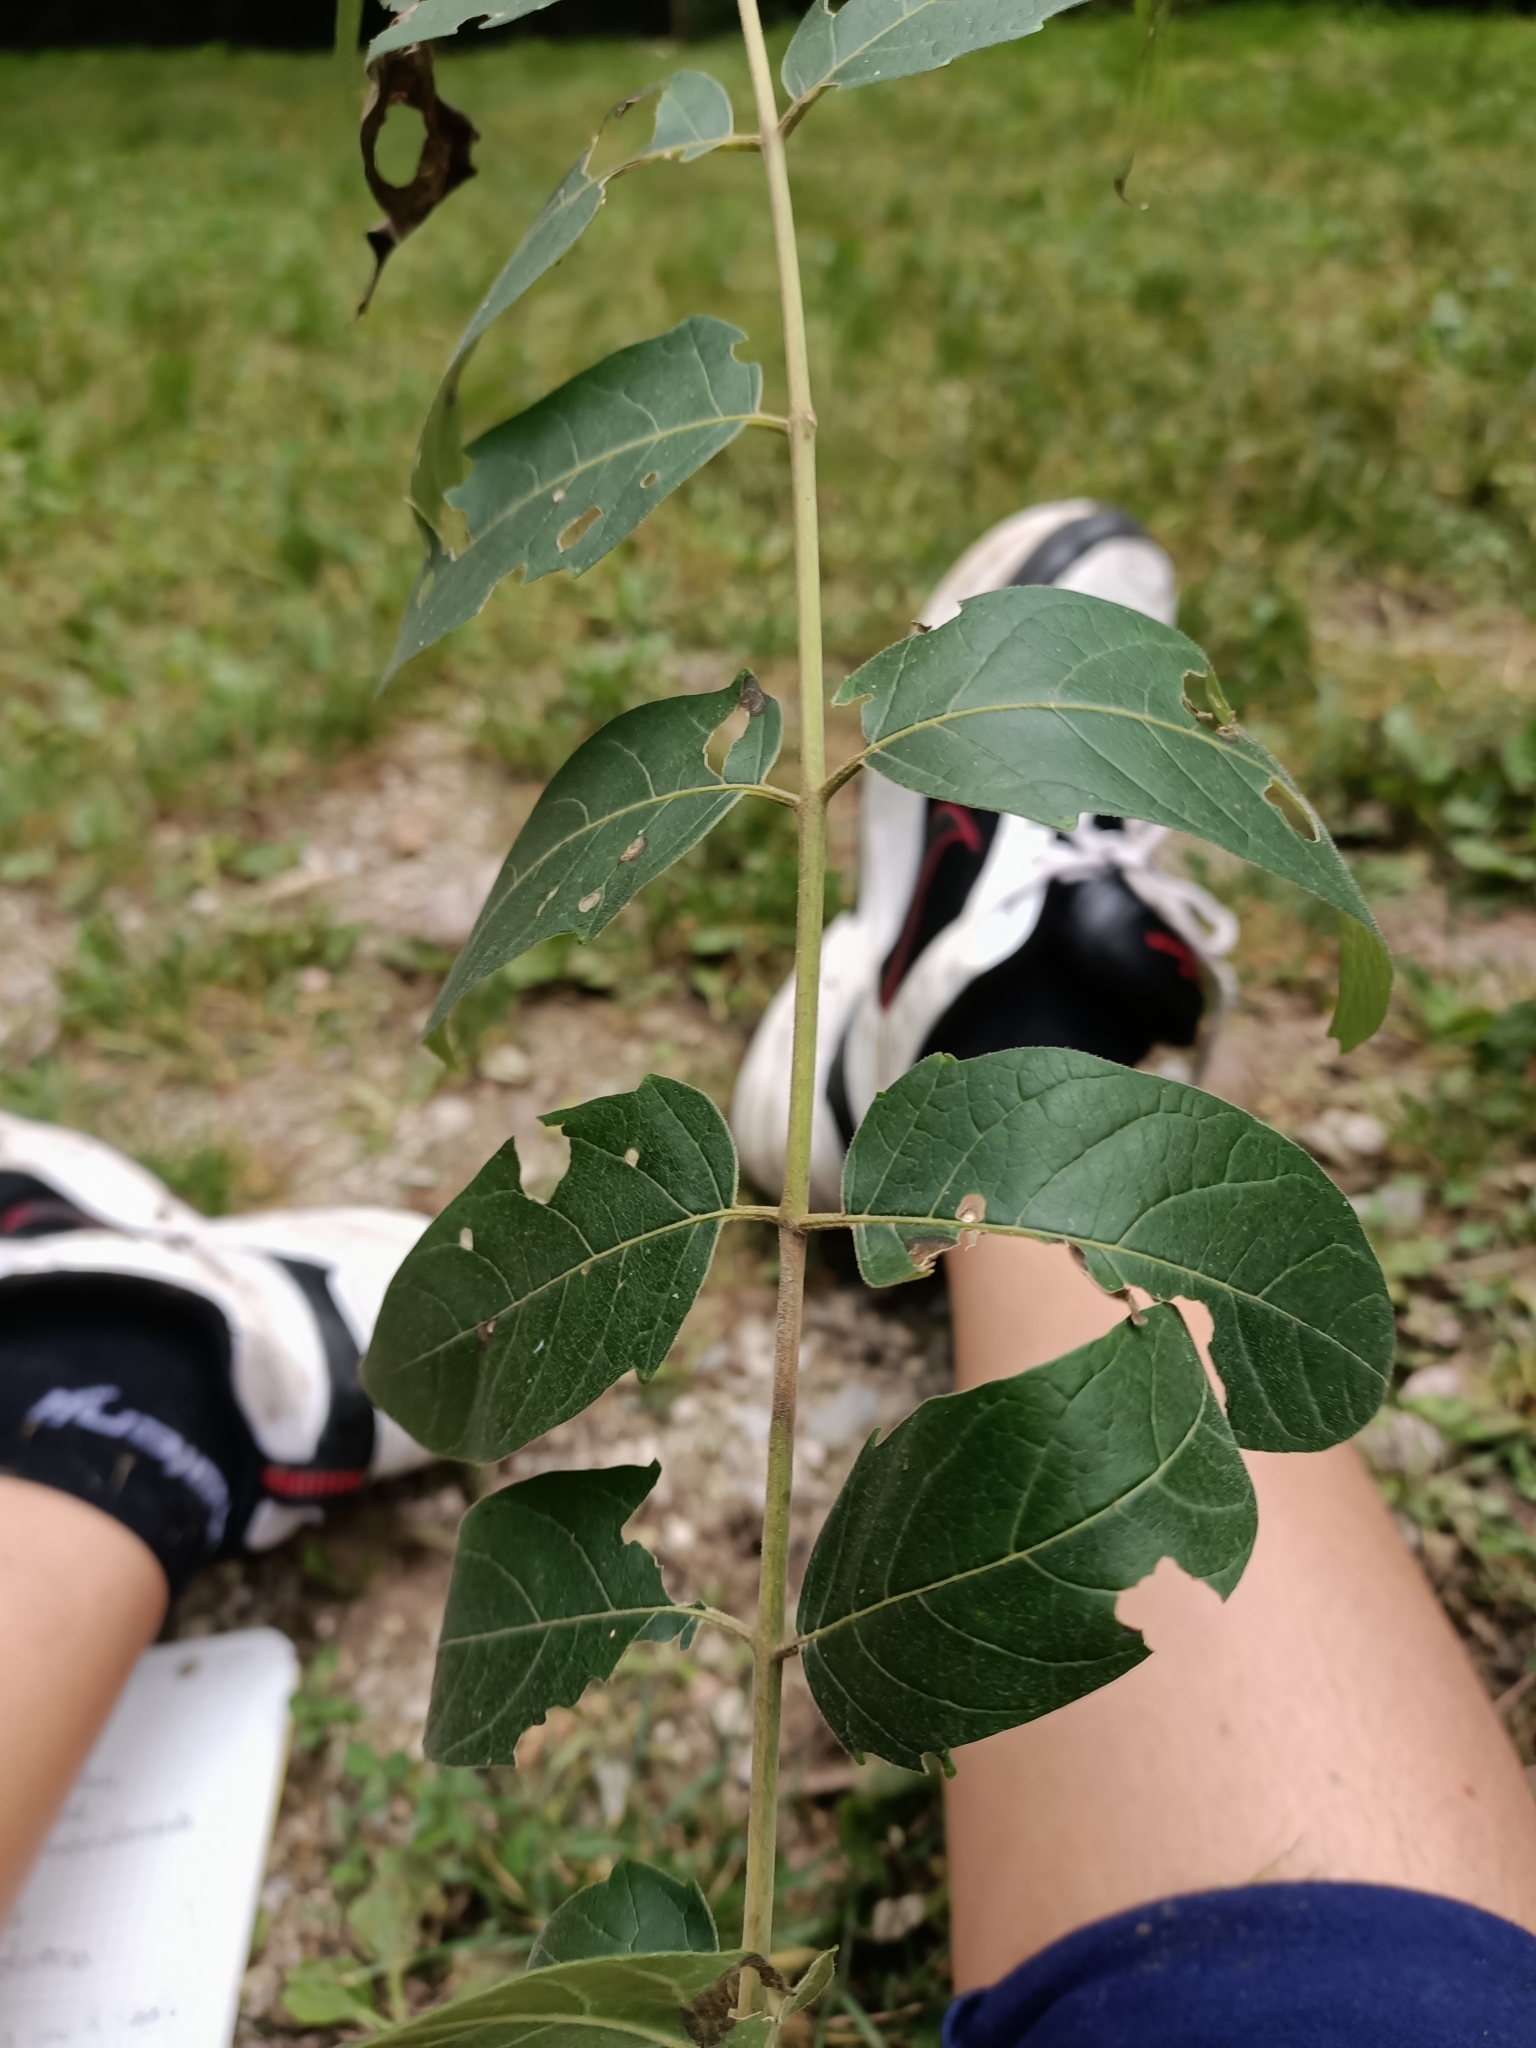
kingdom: Plantae
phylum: Tracheophyta
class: Magnoliopsida
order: Sapindales
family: Simaroubaceae
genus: Ailanthus
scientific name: Ailanthus altissima
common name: Tree-of-heaven
